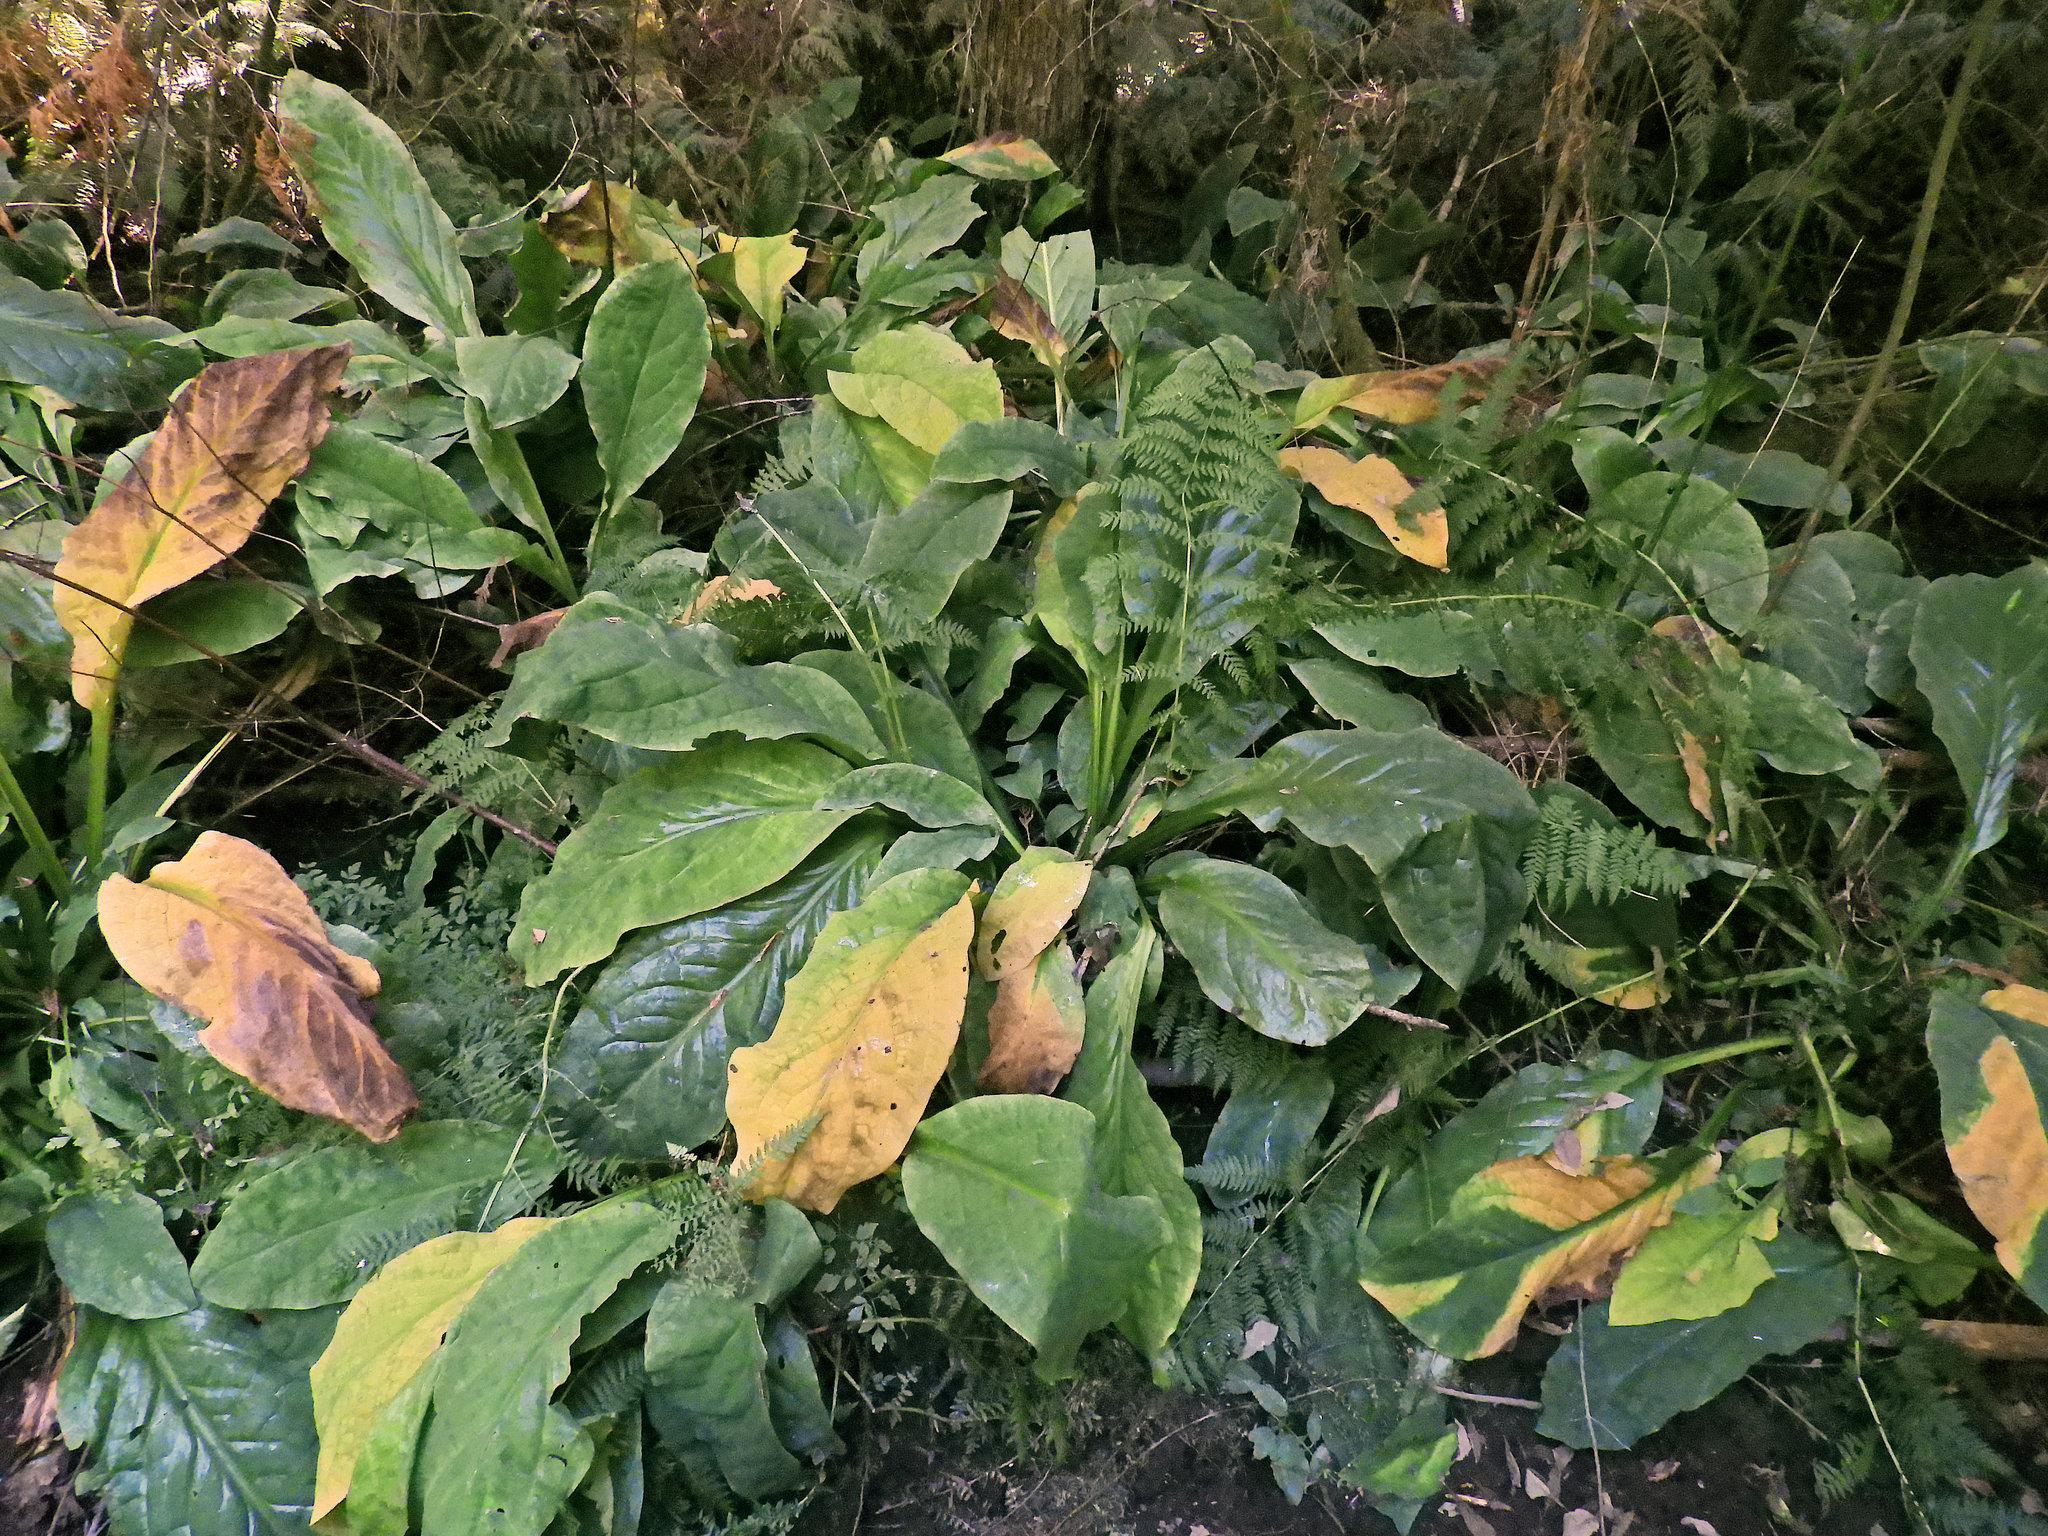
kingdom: Plantae
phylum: Tracheophyta
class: Liliopsida
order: Alismatales
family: Araceae
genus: Lysichiton
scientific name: Lysichiton americanus
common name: American skunk cabbage
